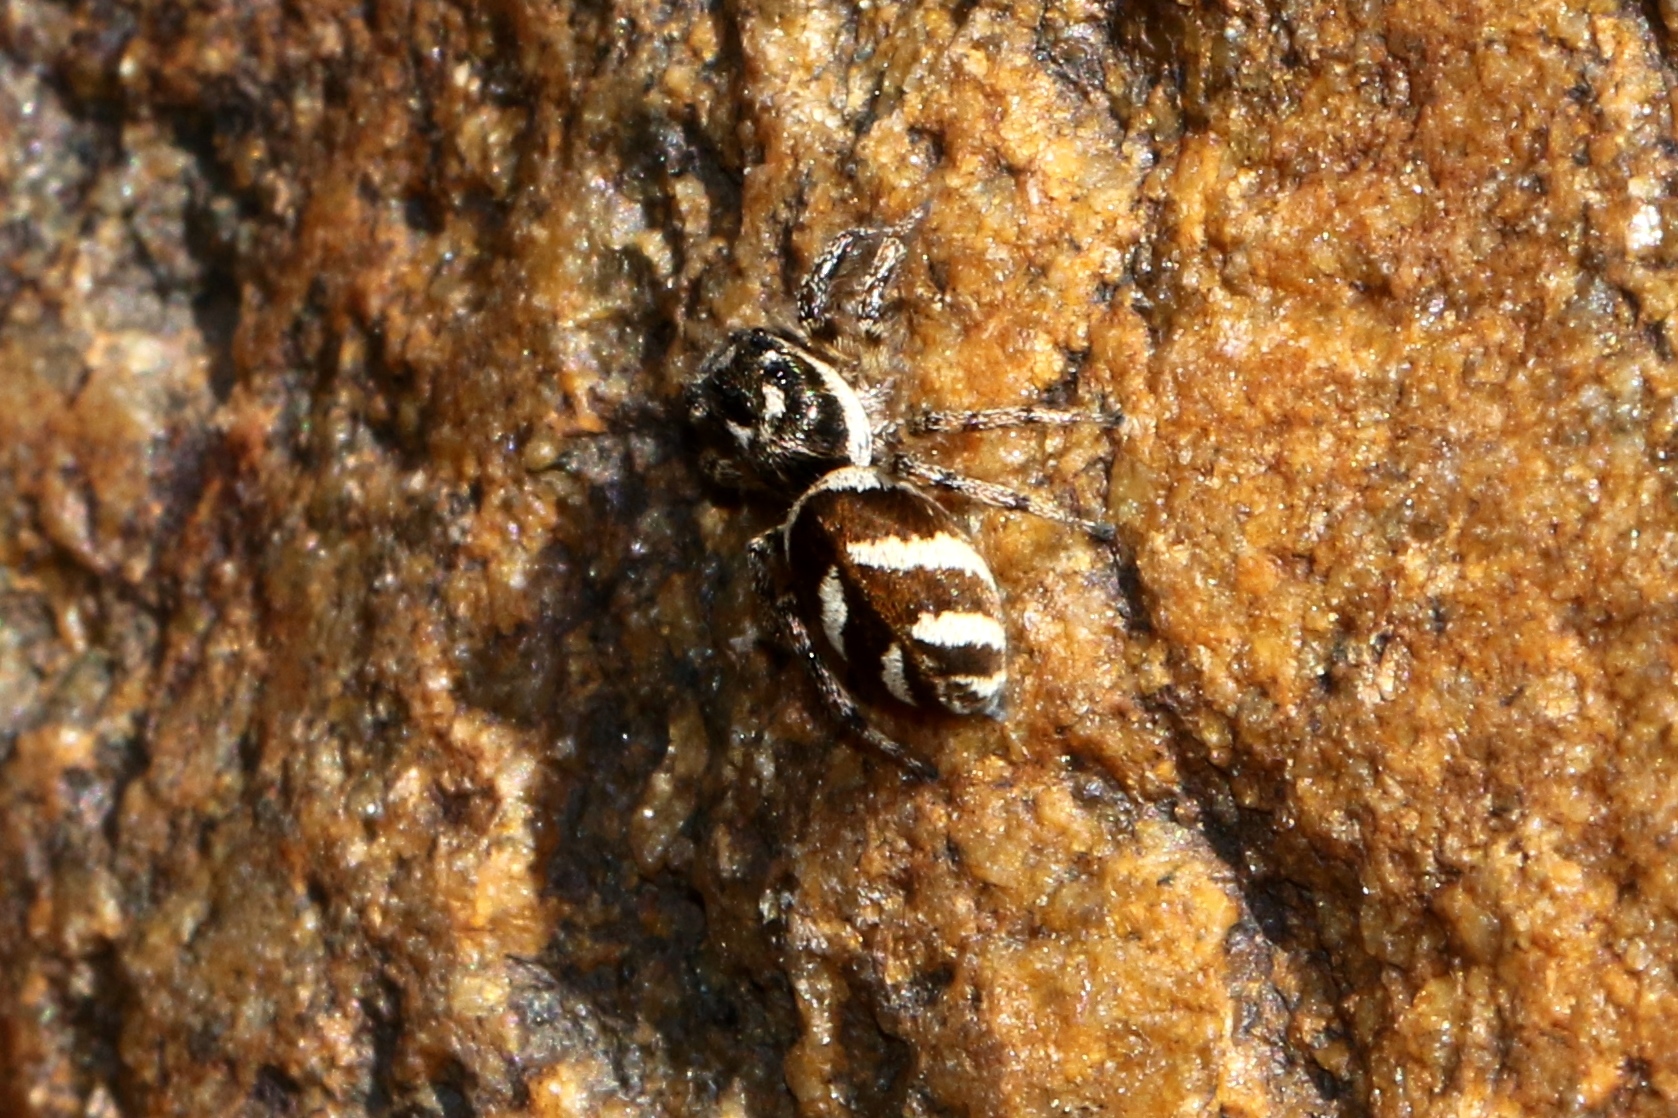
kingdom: Animalia
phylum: Arthropoda
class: Arachnida
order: Araneae
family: Salticidae
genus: Salticus
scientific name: Salticus scenicus
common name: Zebra jumper
